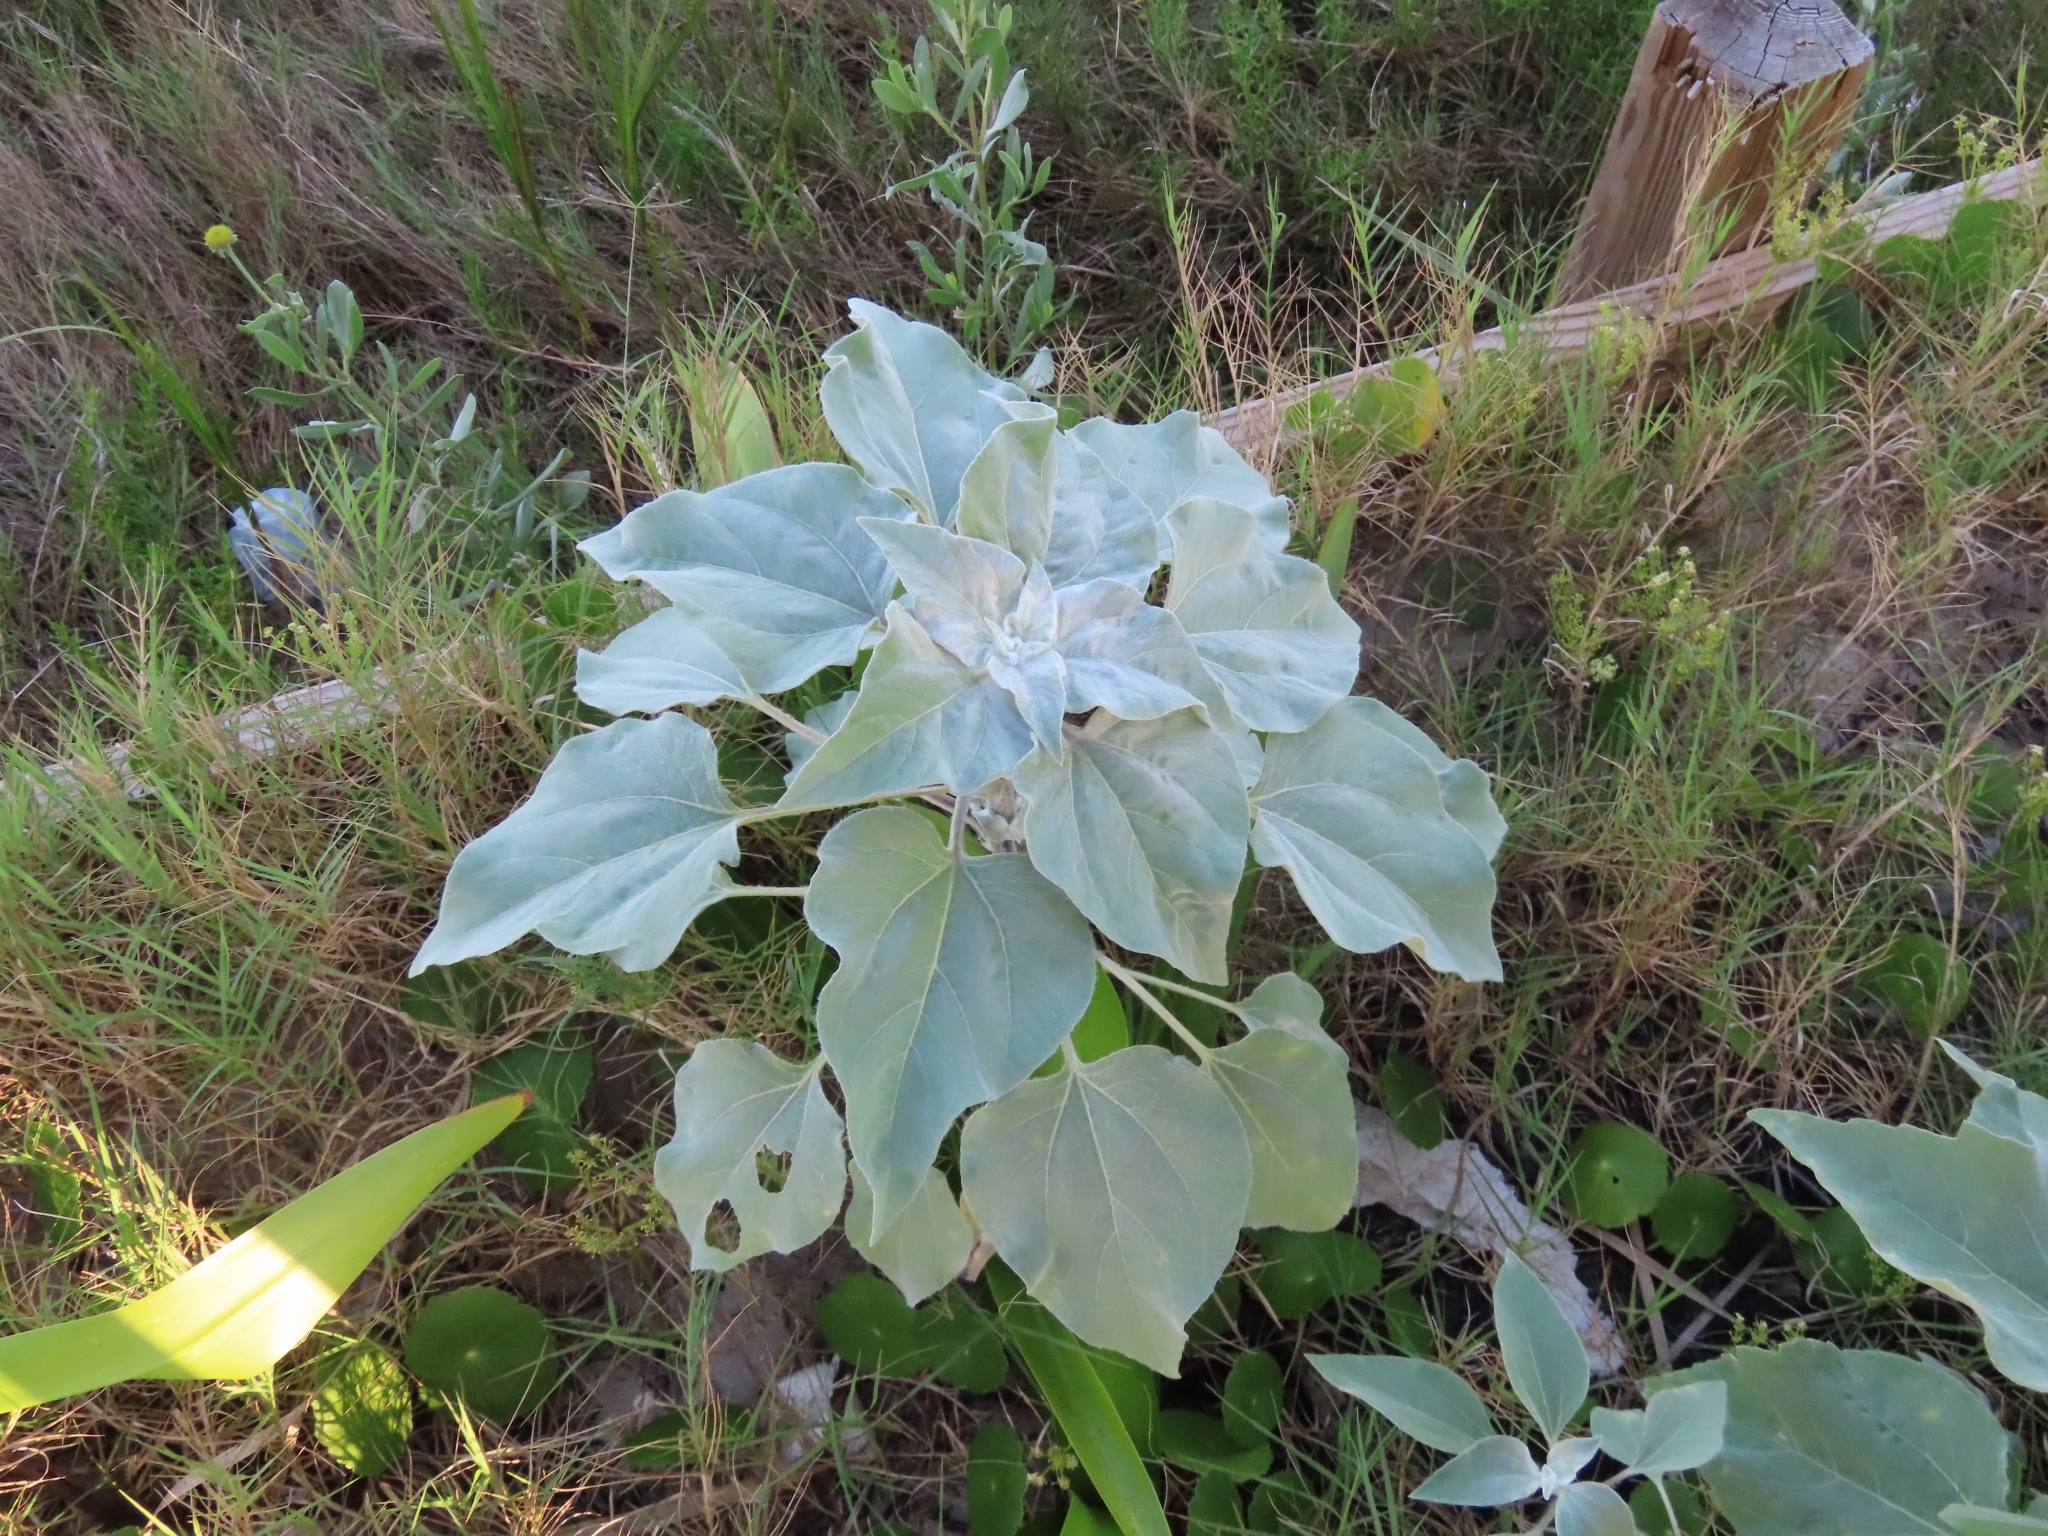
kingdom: Plantae
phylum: Tracheophyta
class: Magnoliopsida
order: Asterales
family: Asteraceae
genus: Helianthus
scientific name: Helianthus argophyllus
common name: Silverleaf sunflower
